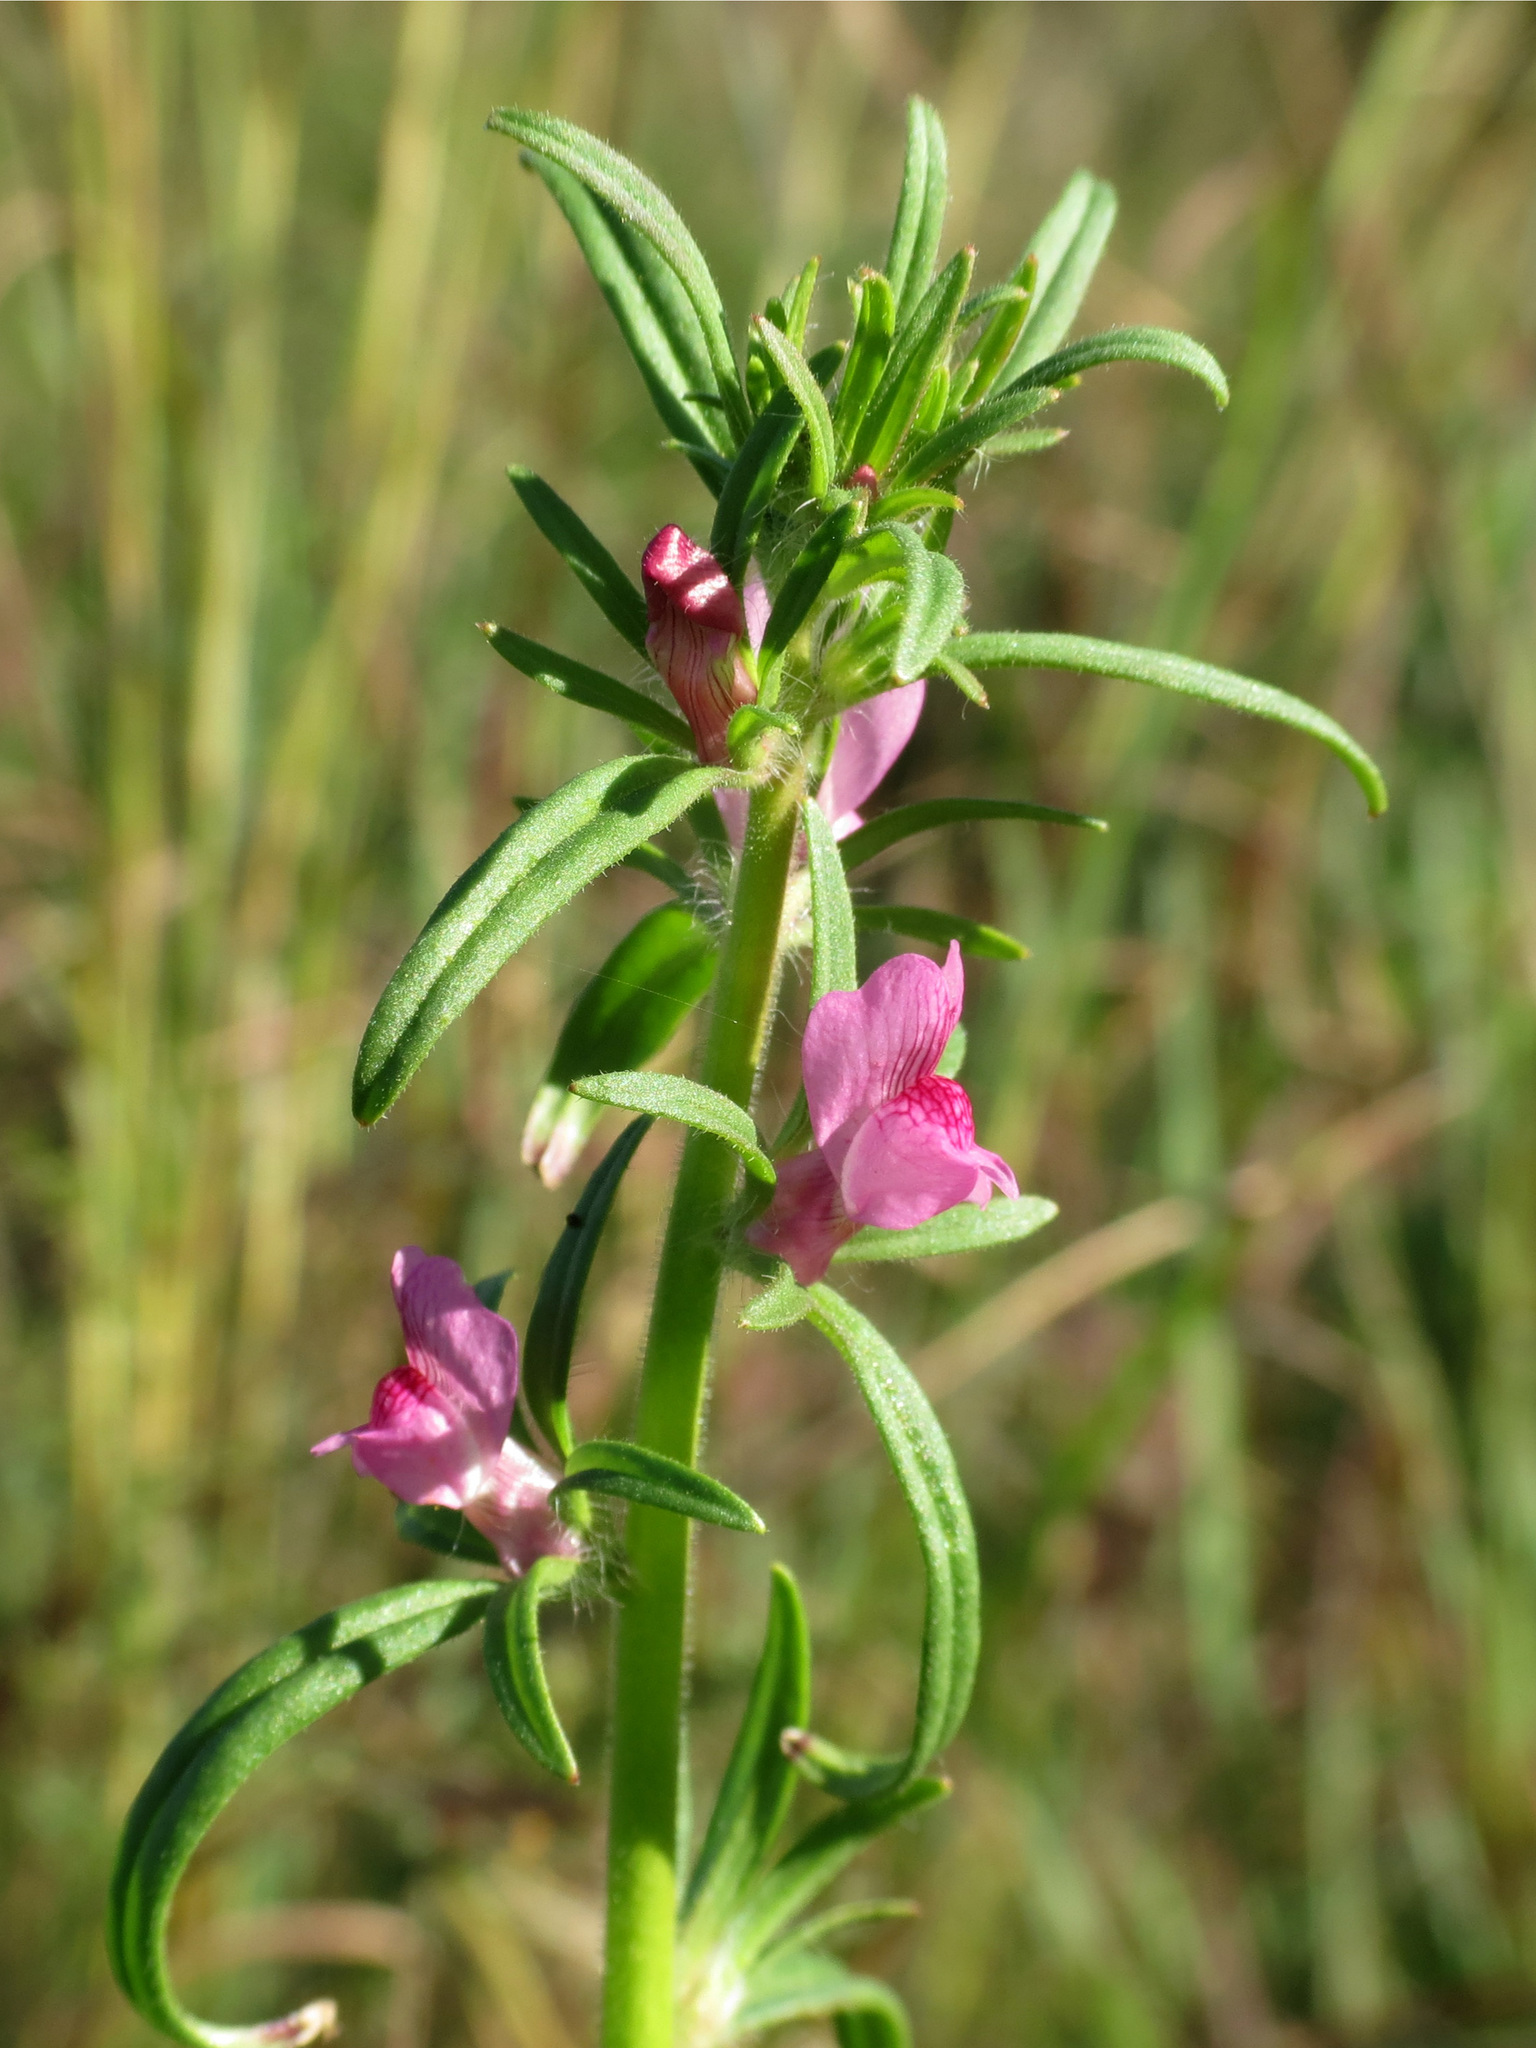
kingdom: Plantae
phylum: Tracheophyta
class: Magnoliopsida
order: Lamiales
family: Plantaginaceae
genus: Misopates
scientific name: Misopates orontium
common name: Weasel's-snout
